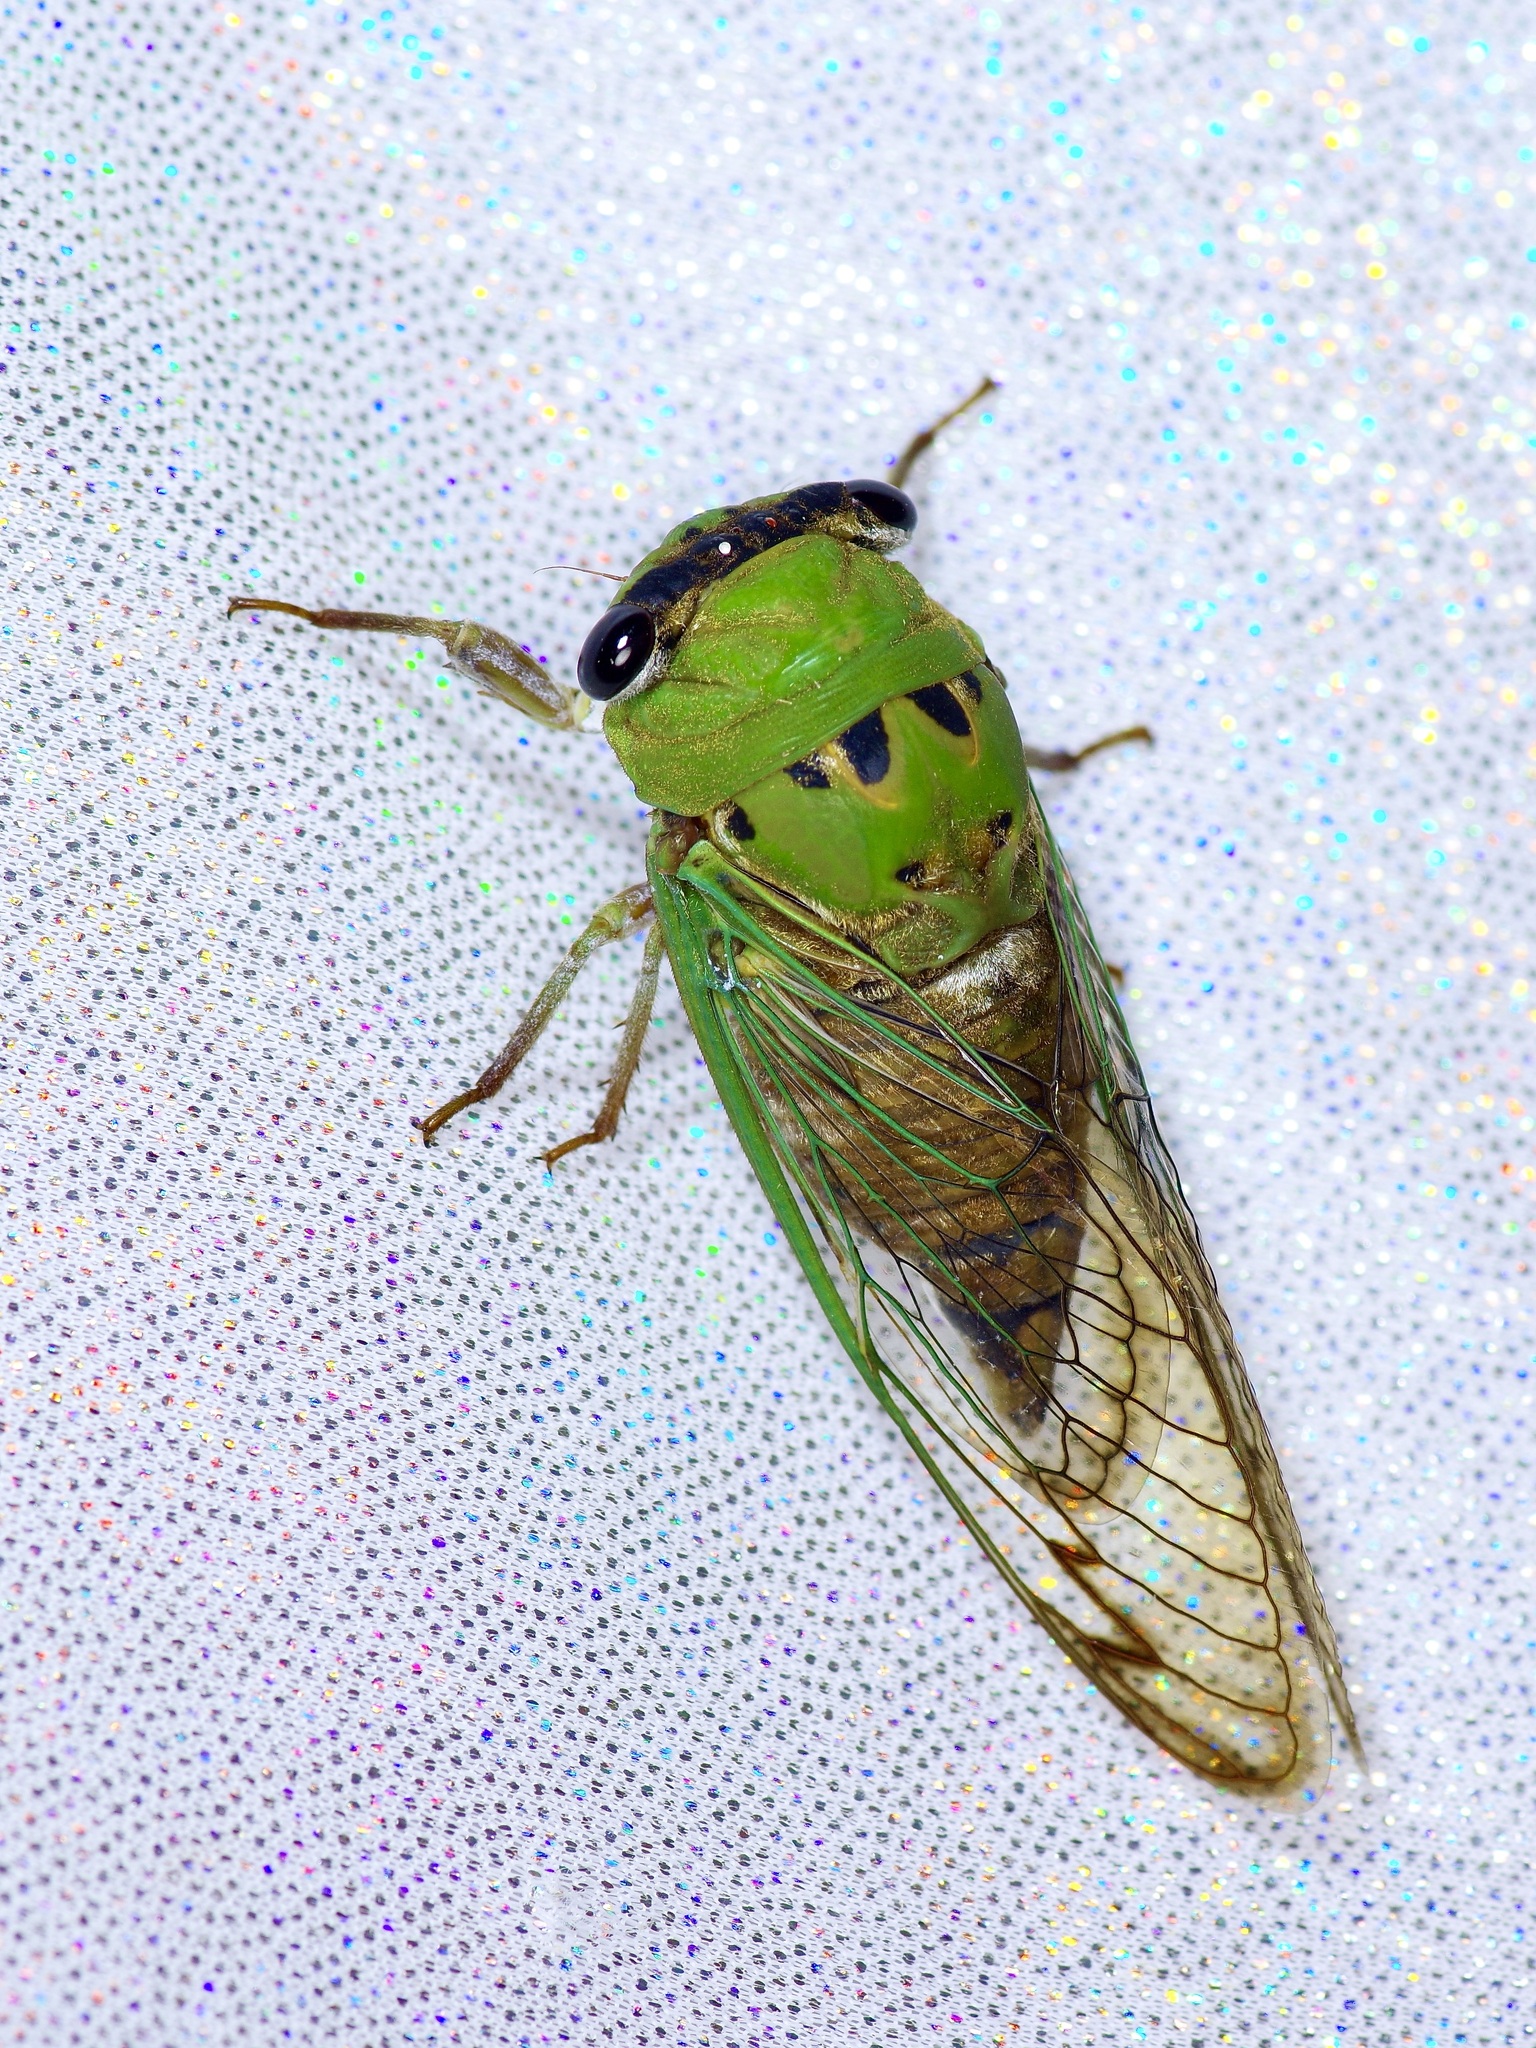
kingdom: Animalia
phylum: Arthropoda
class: Insecta
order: Hemiptera
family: Cicadidae
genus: Neotibicen
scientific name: Neotibicen superbus
